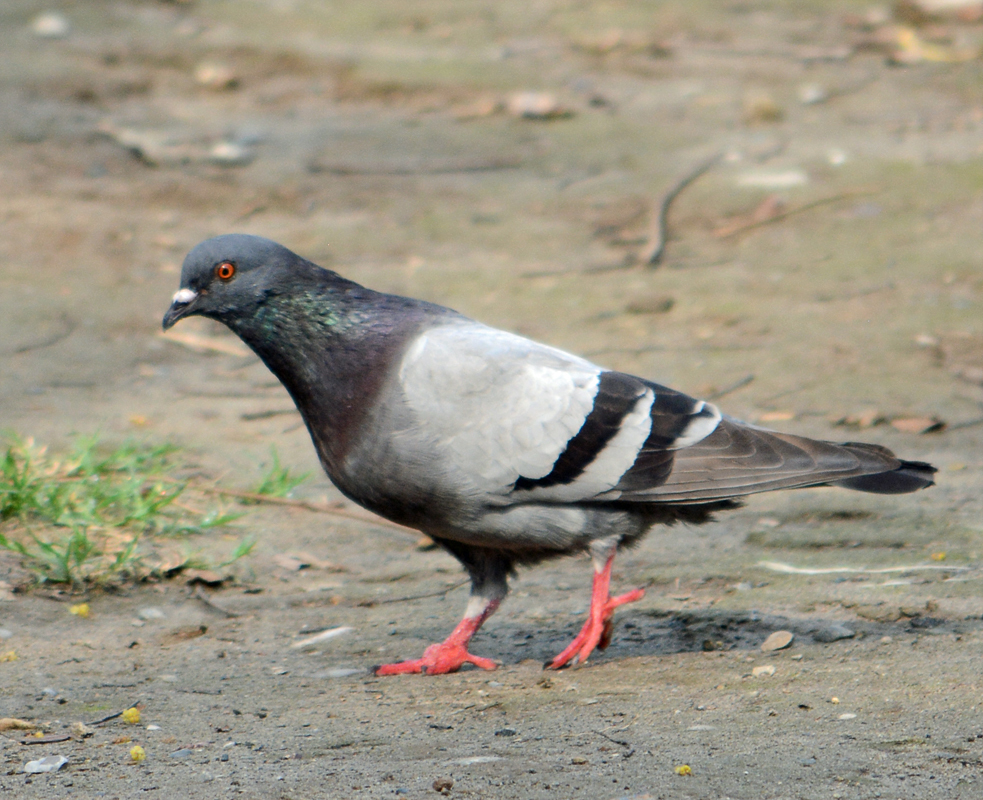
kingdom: Animalia
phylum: Chordata
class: Aves
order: Columbiformes
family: Columbidae
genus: Columba
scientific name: Columba livia
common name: Rock pigeon
